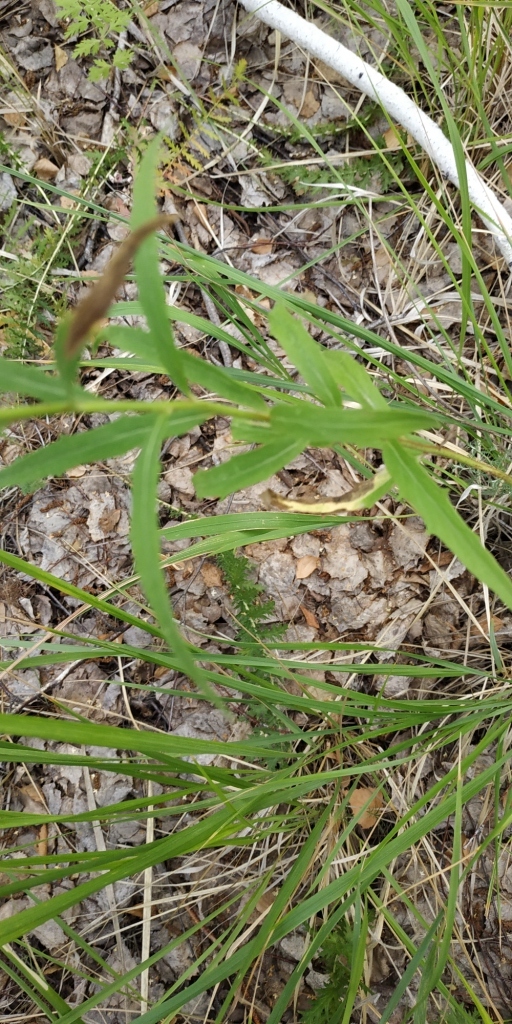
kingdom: Plantae
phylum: Tracheophyta
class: Magnoliopsida
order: Asterales
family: Asteraceae
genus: Hieracium
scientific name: Hieracium umbellatum
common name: Northern hawkweed
